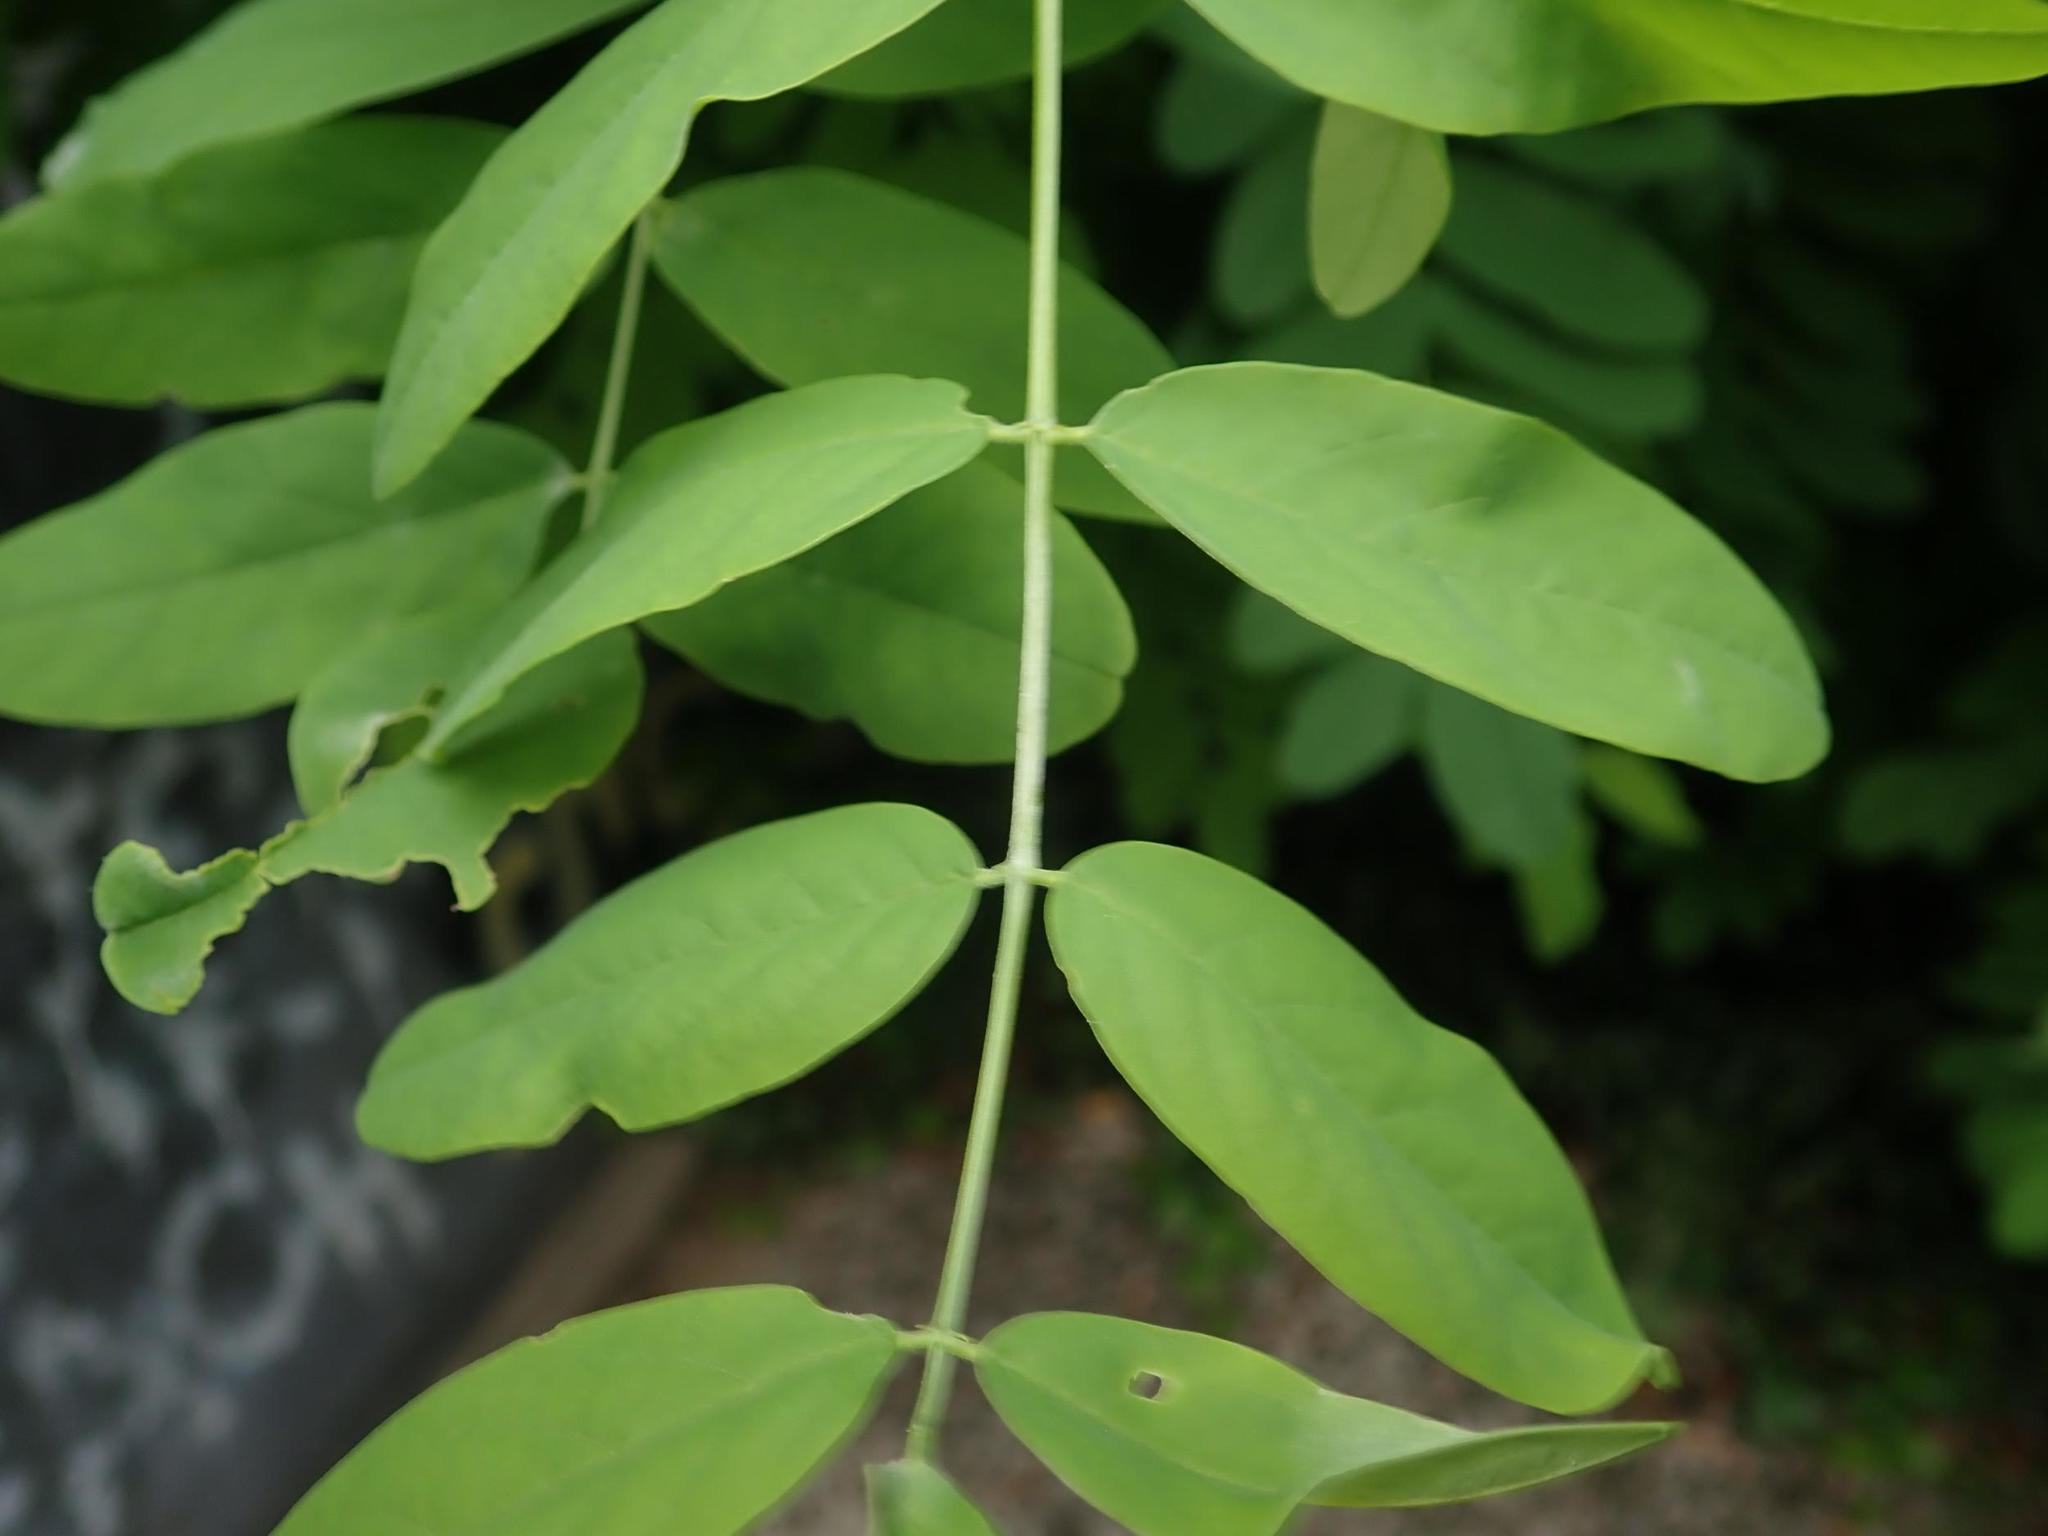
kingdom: Plantae
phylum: Tracheophyta
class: Magnoliopsida
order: Fabales
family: Fabaceae
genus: Robinia
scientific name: Robinia pseudoacacia
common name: Black locust
